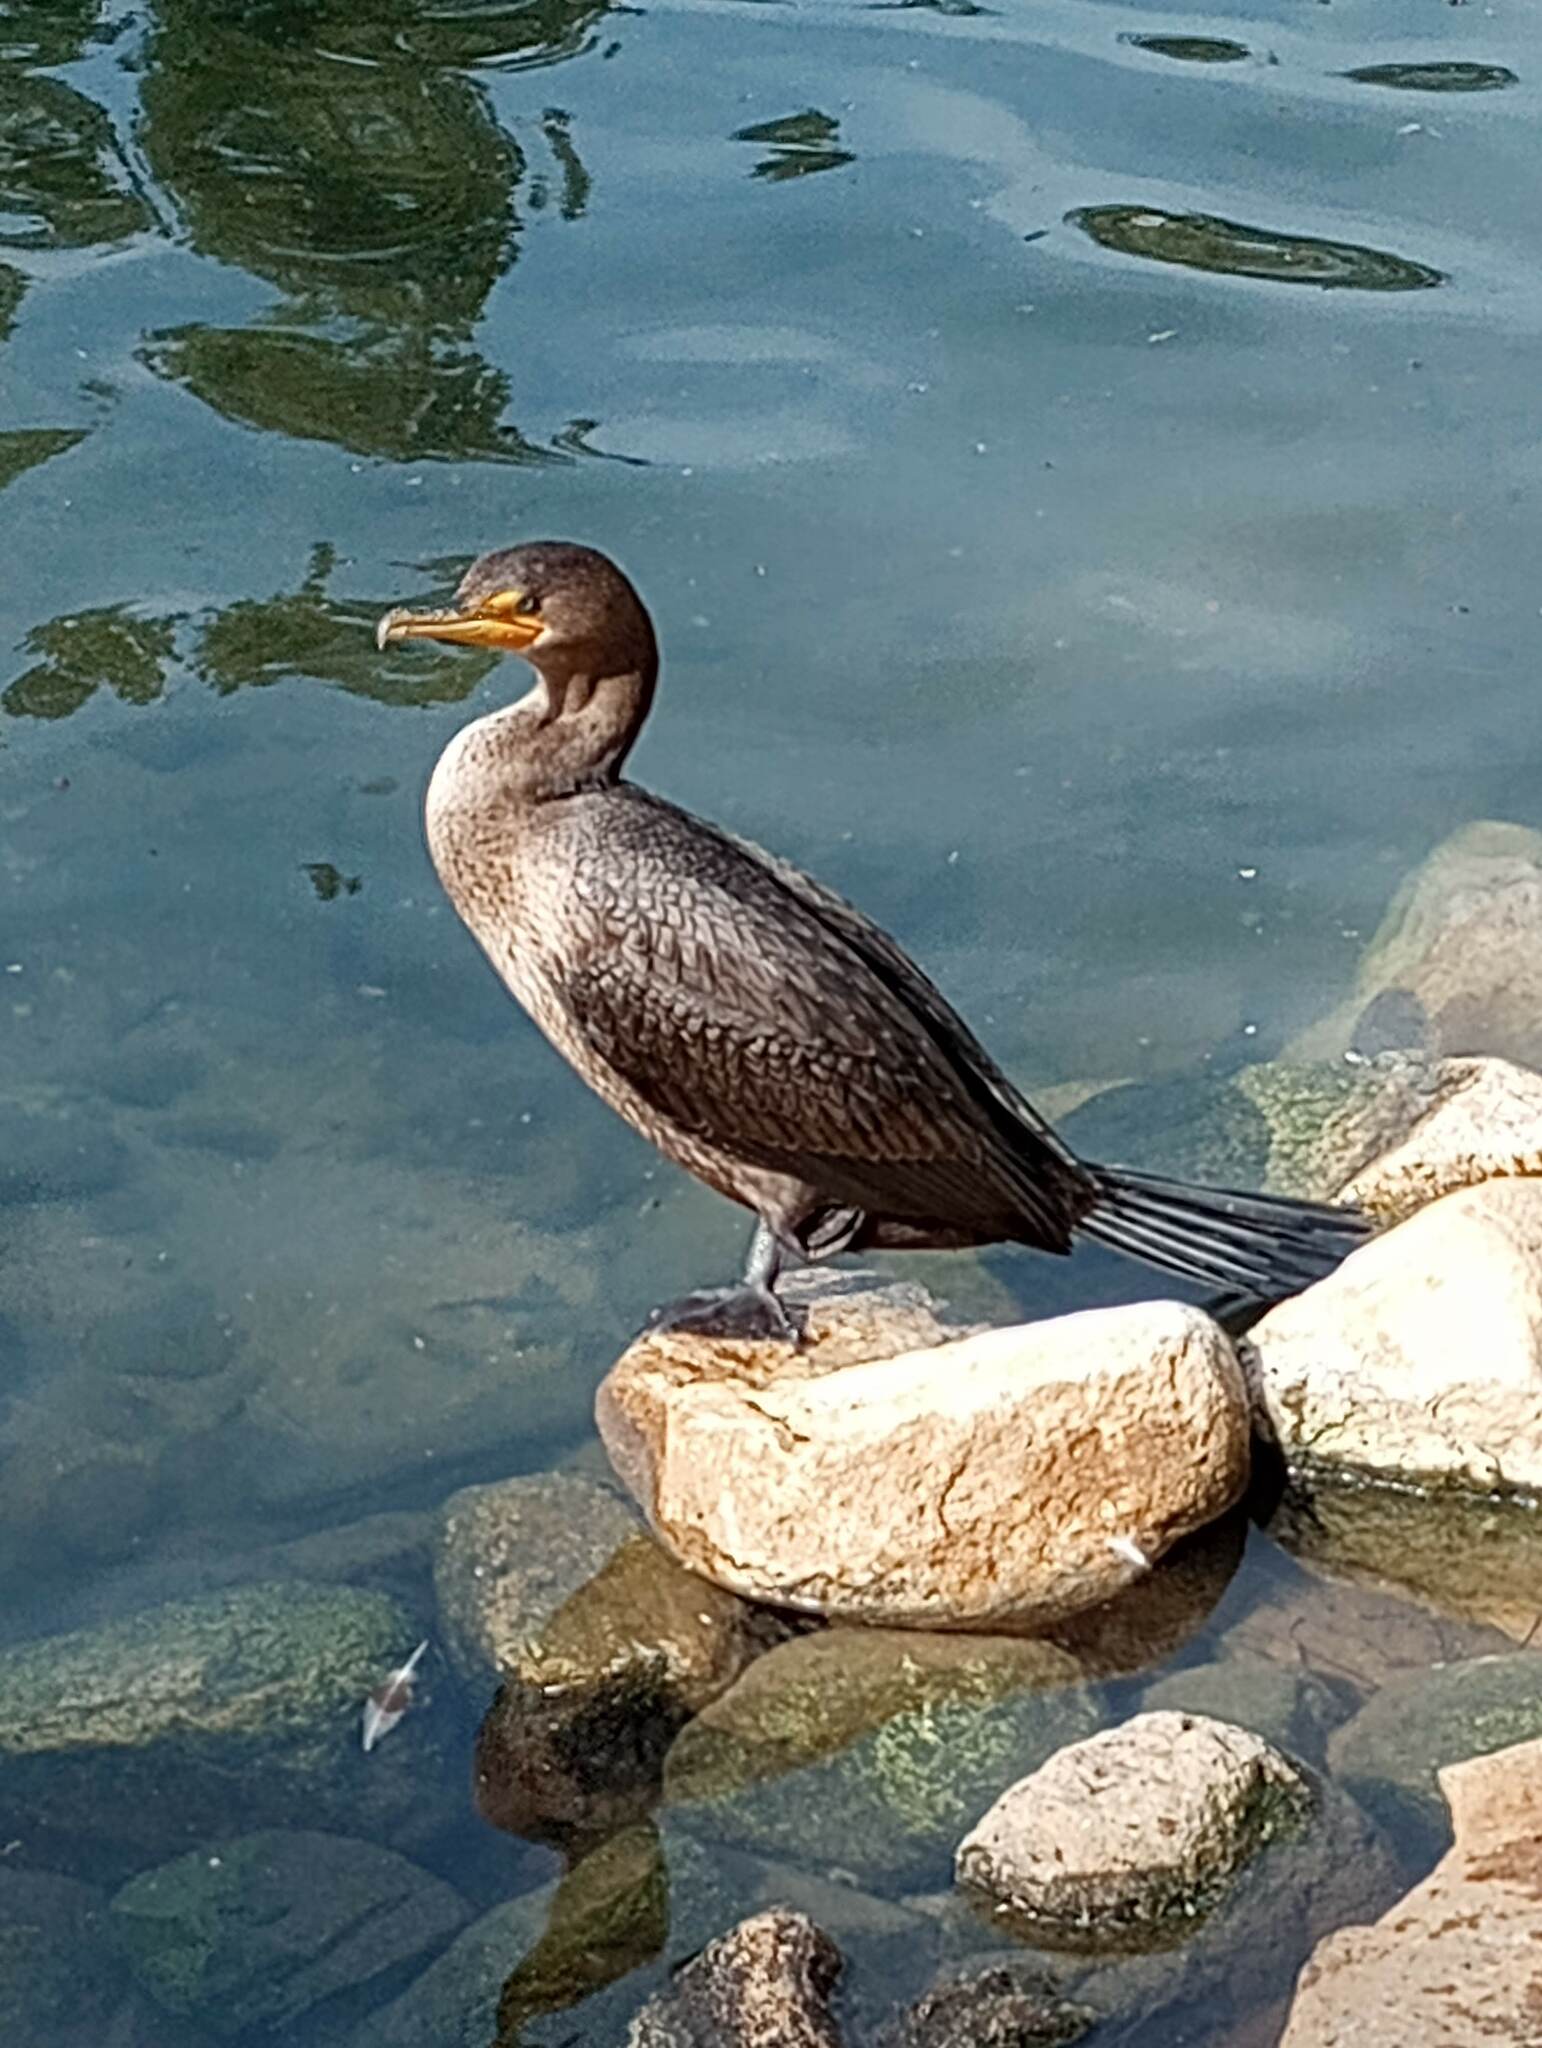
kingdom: Animalia
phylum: Chordata
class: Aves
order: Suliformes
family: Phalacrocoracidae
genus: Phalacrocorax
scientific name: Phalacrocorax auritus
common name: Double-crested cormorant
